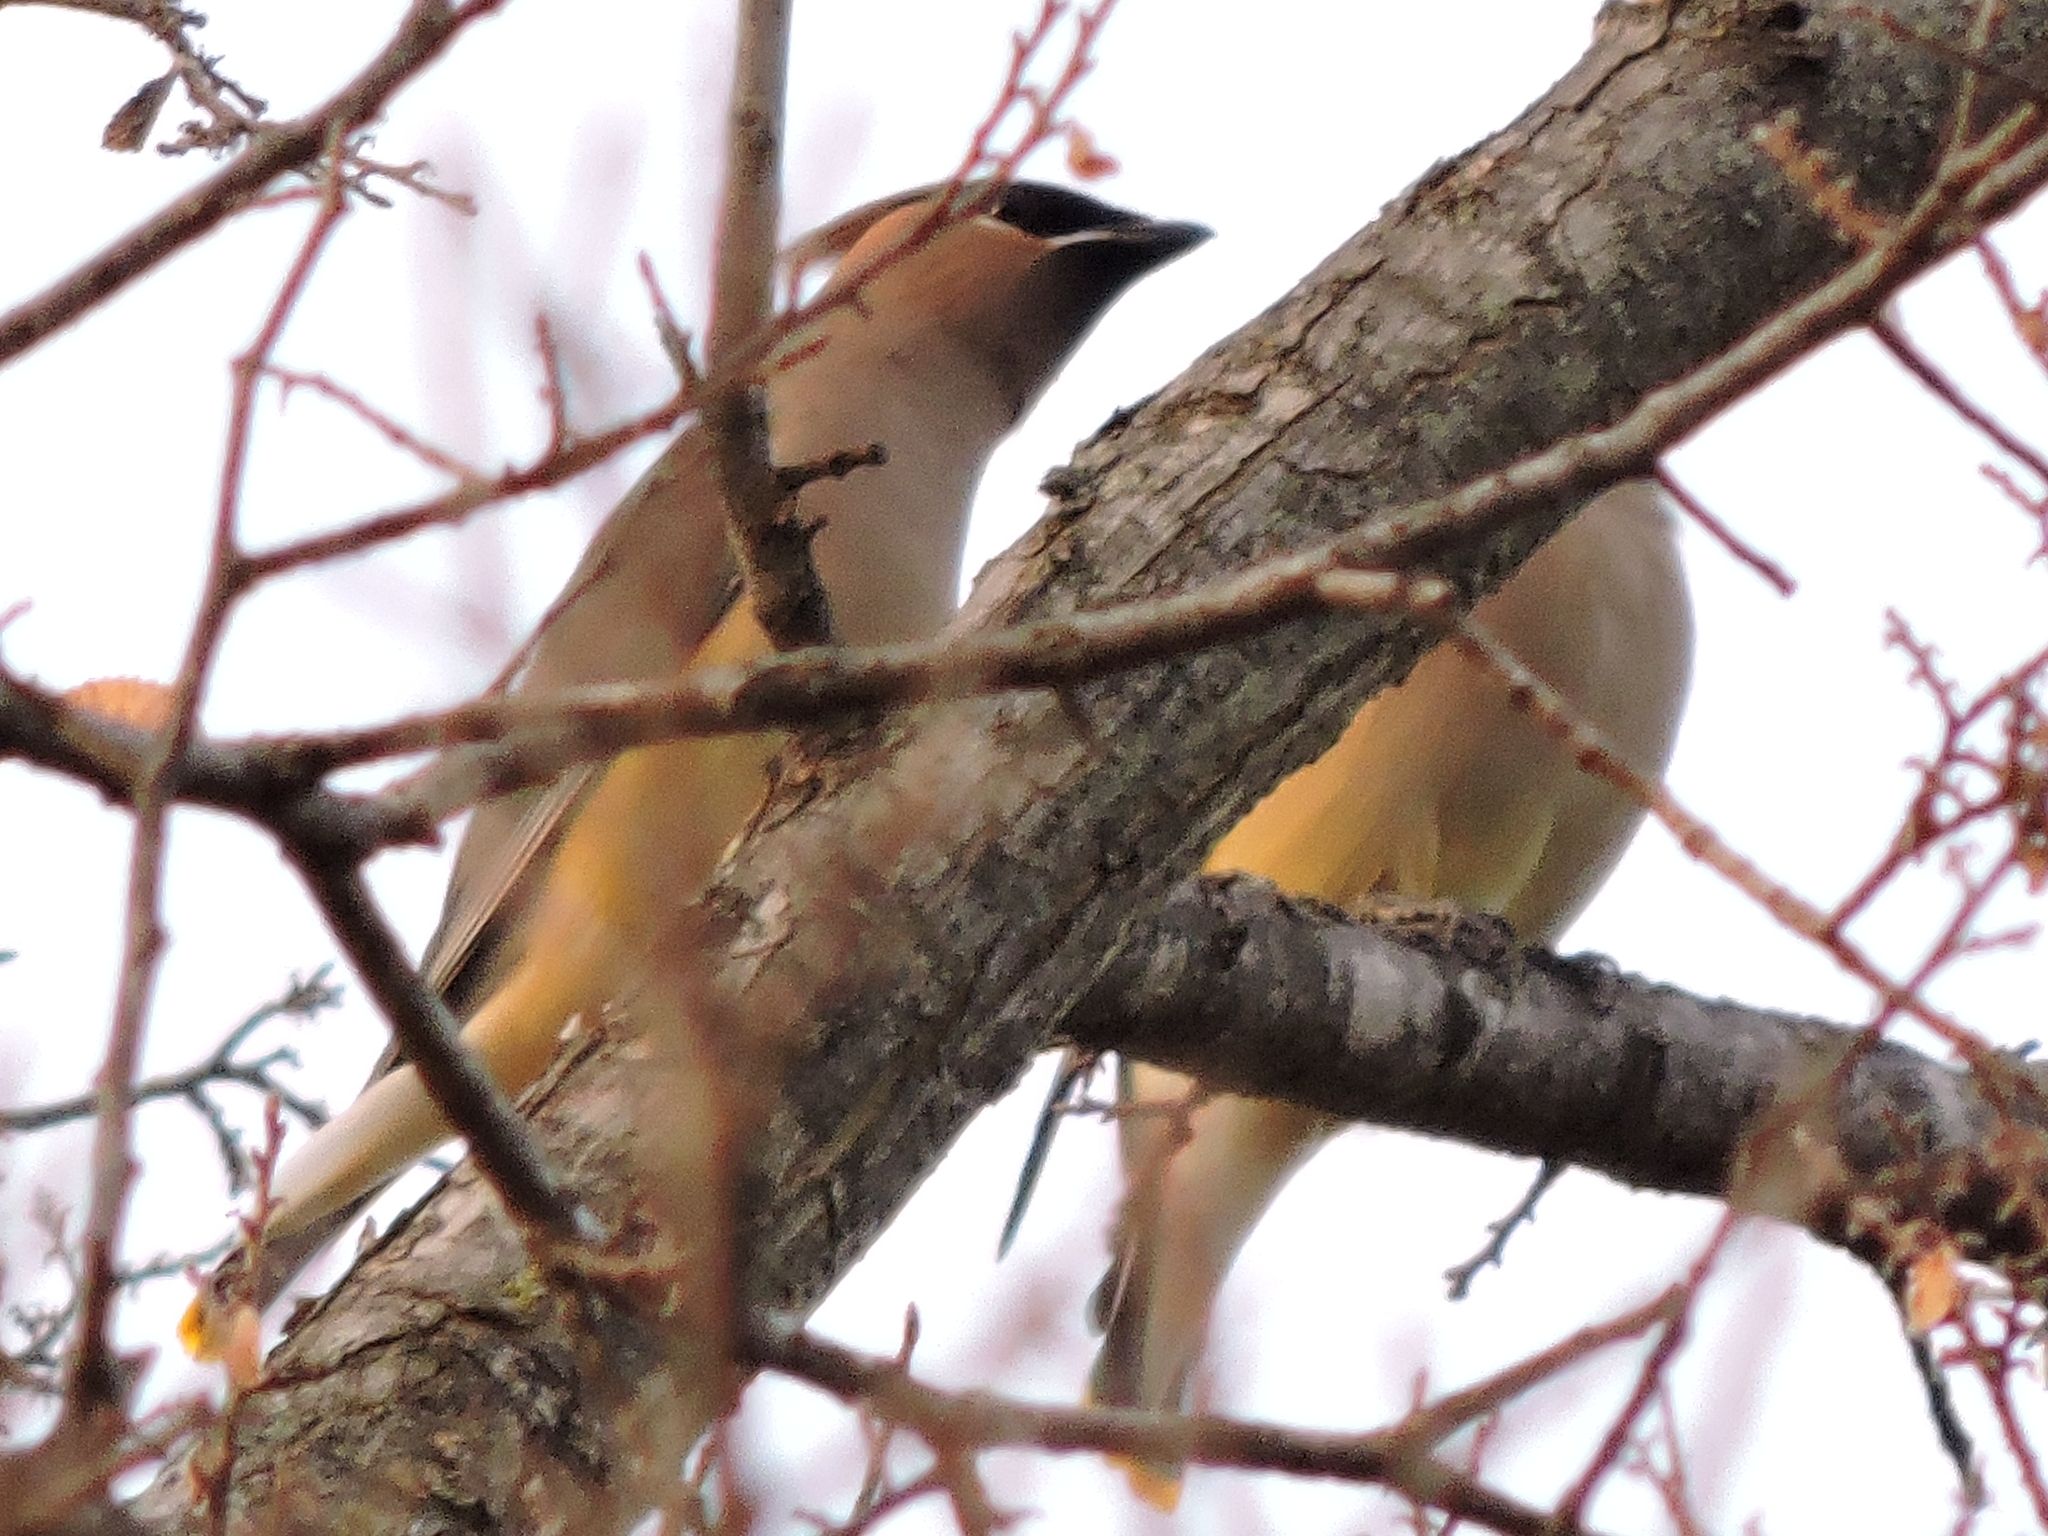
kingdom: Animalia
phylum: Chordata
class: Aves
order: Passeriformes
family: Bombycillidae
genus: Bombycilla
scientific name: Bombycilla cedrorum
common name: Cedar waxwing
